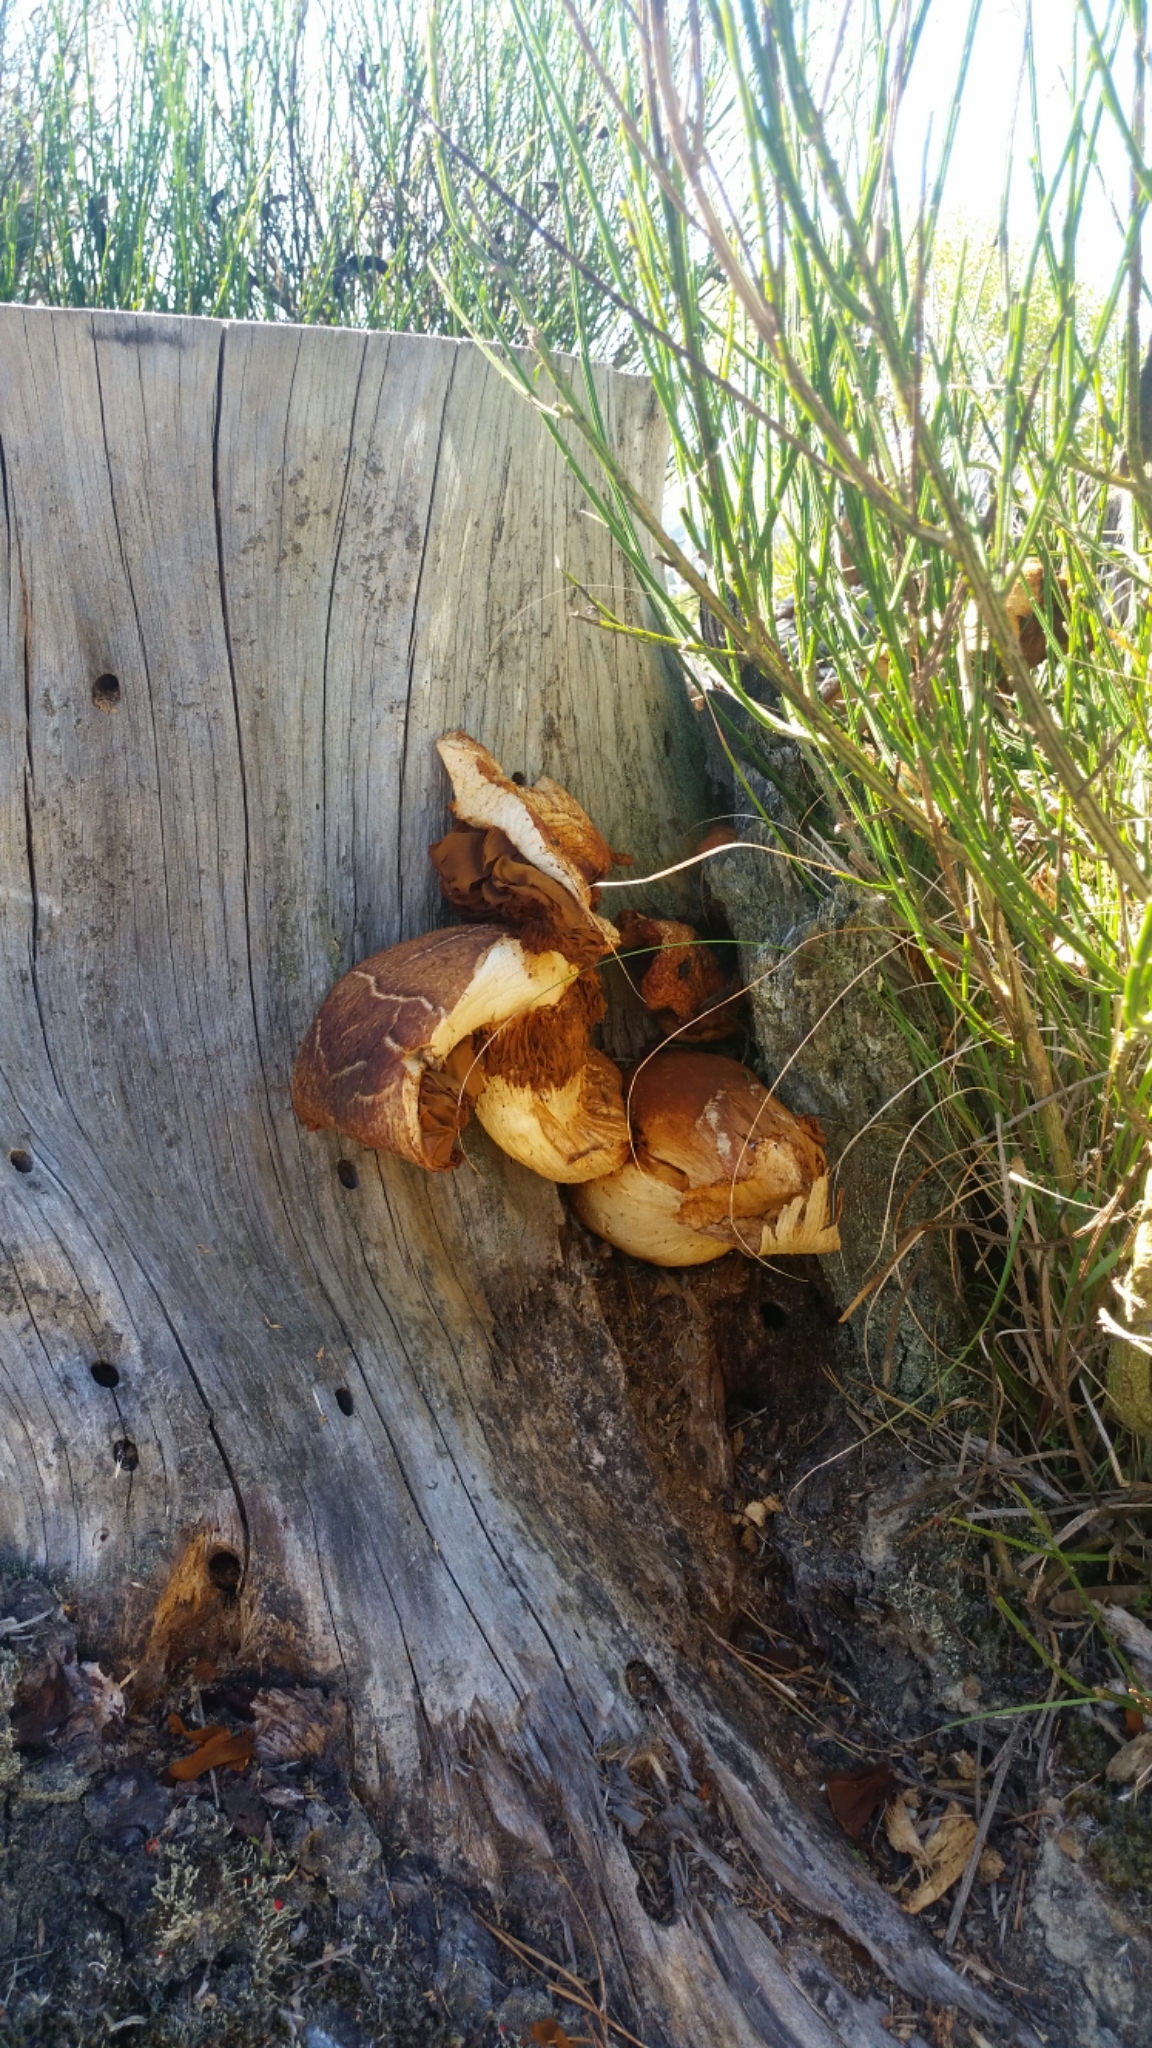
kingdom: Fungi
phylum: Basidiomycota
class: Agaricomycetes
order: Agaricales
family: Hymenogastraceae
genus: Gymnopilus
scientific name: Gymnopilus junonius
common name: Spectacular rustgill
